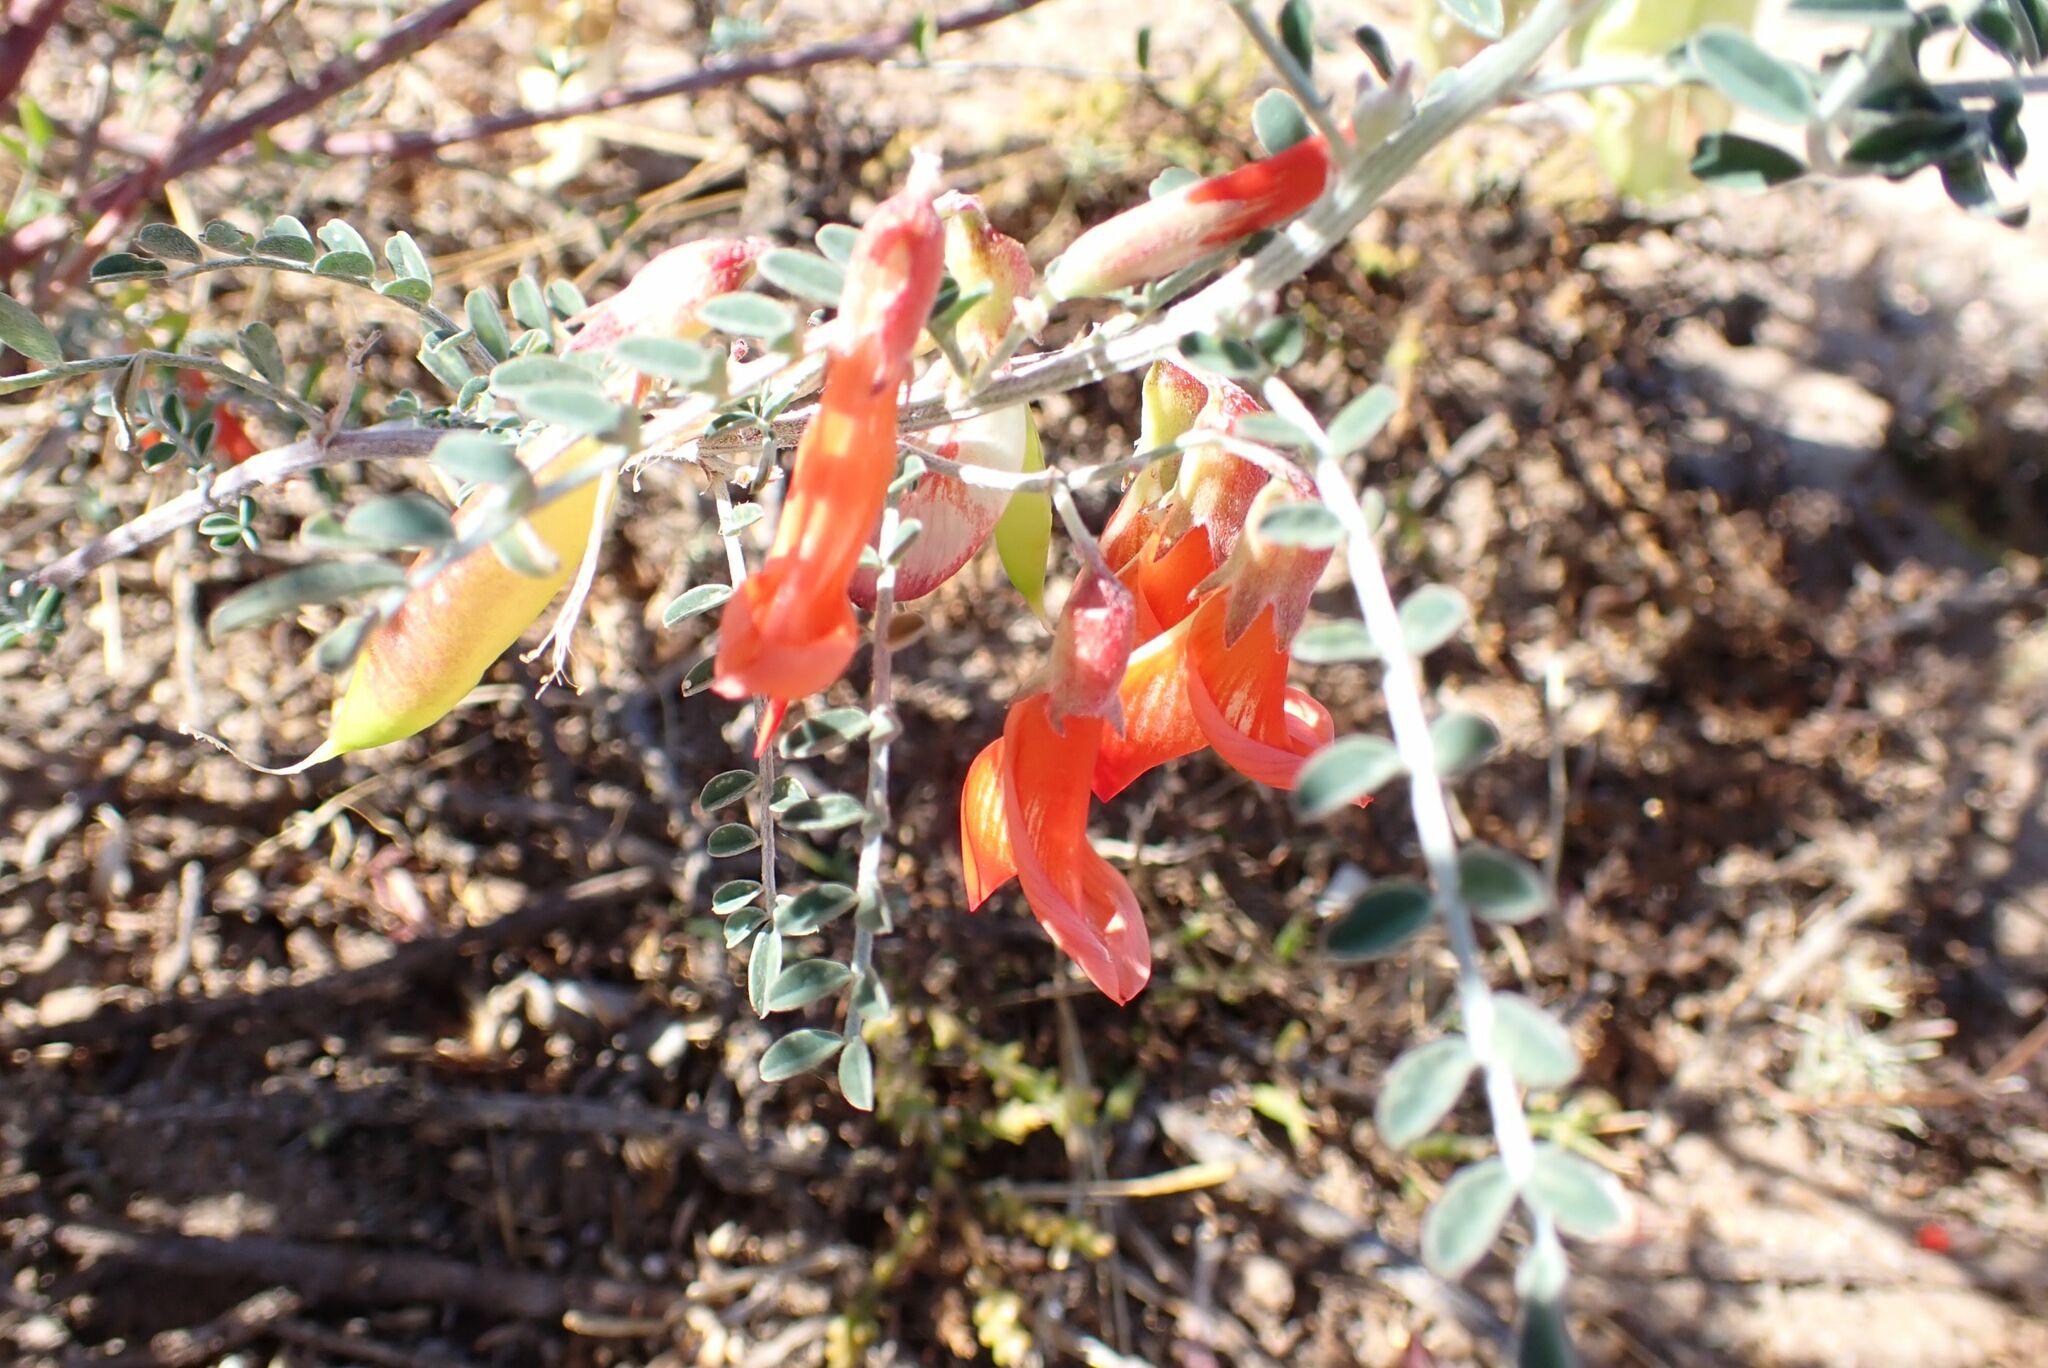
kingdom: Plantae
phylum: Tracheophyta
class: Magnoliopsida
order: Fabales
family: Fabaceae
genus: Lessertia
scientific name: Lessertia frutescens
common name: Balloon-pea
